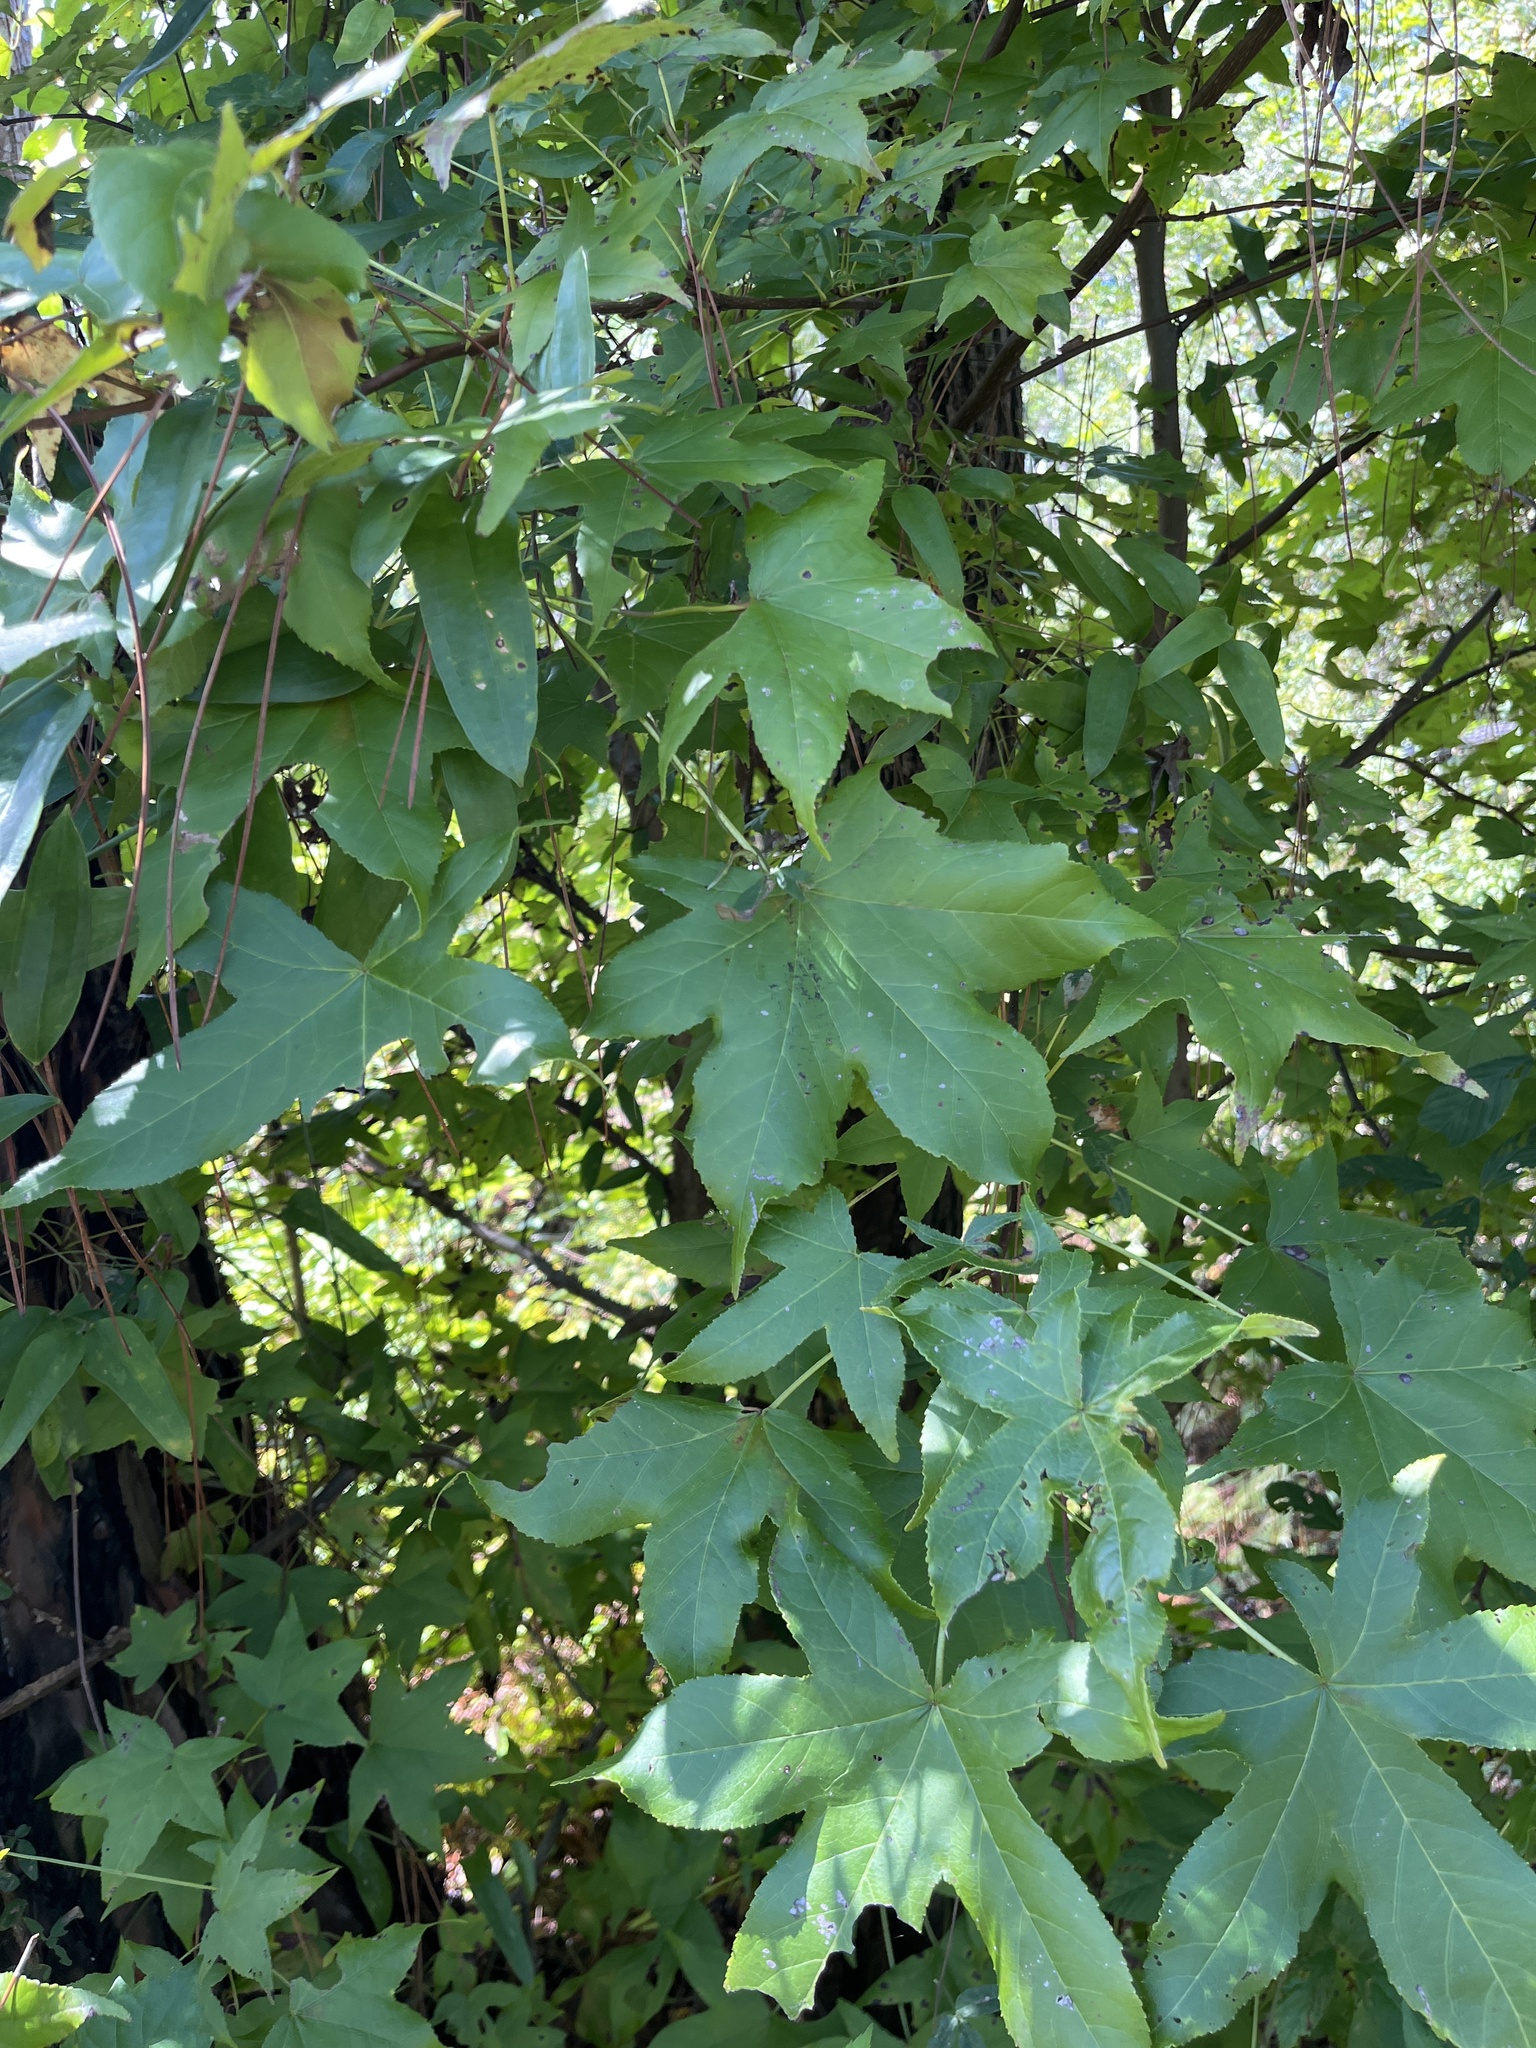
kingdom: Plantae
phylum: Tracheophyta
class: Magnoliopsida
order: Saxifragales
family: Altingiaceae
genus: Liquidambar
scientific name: Liquidambar styraciflua
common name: Sweet gum
